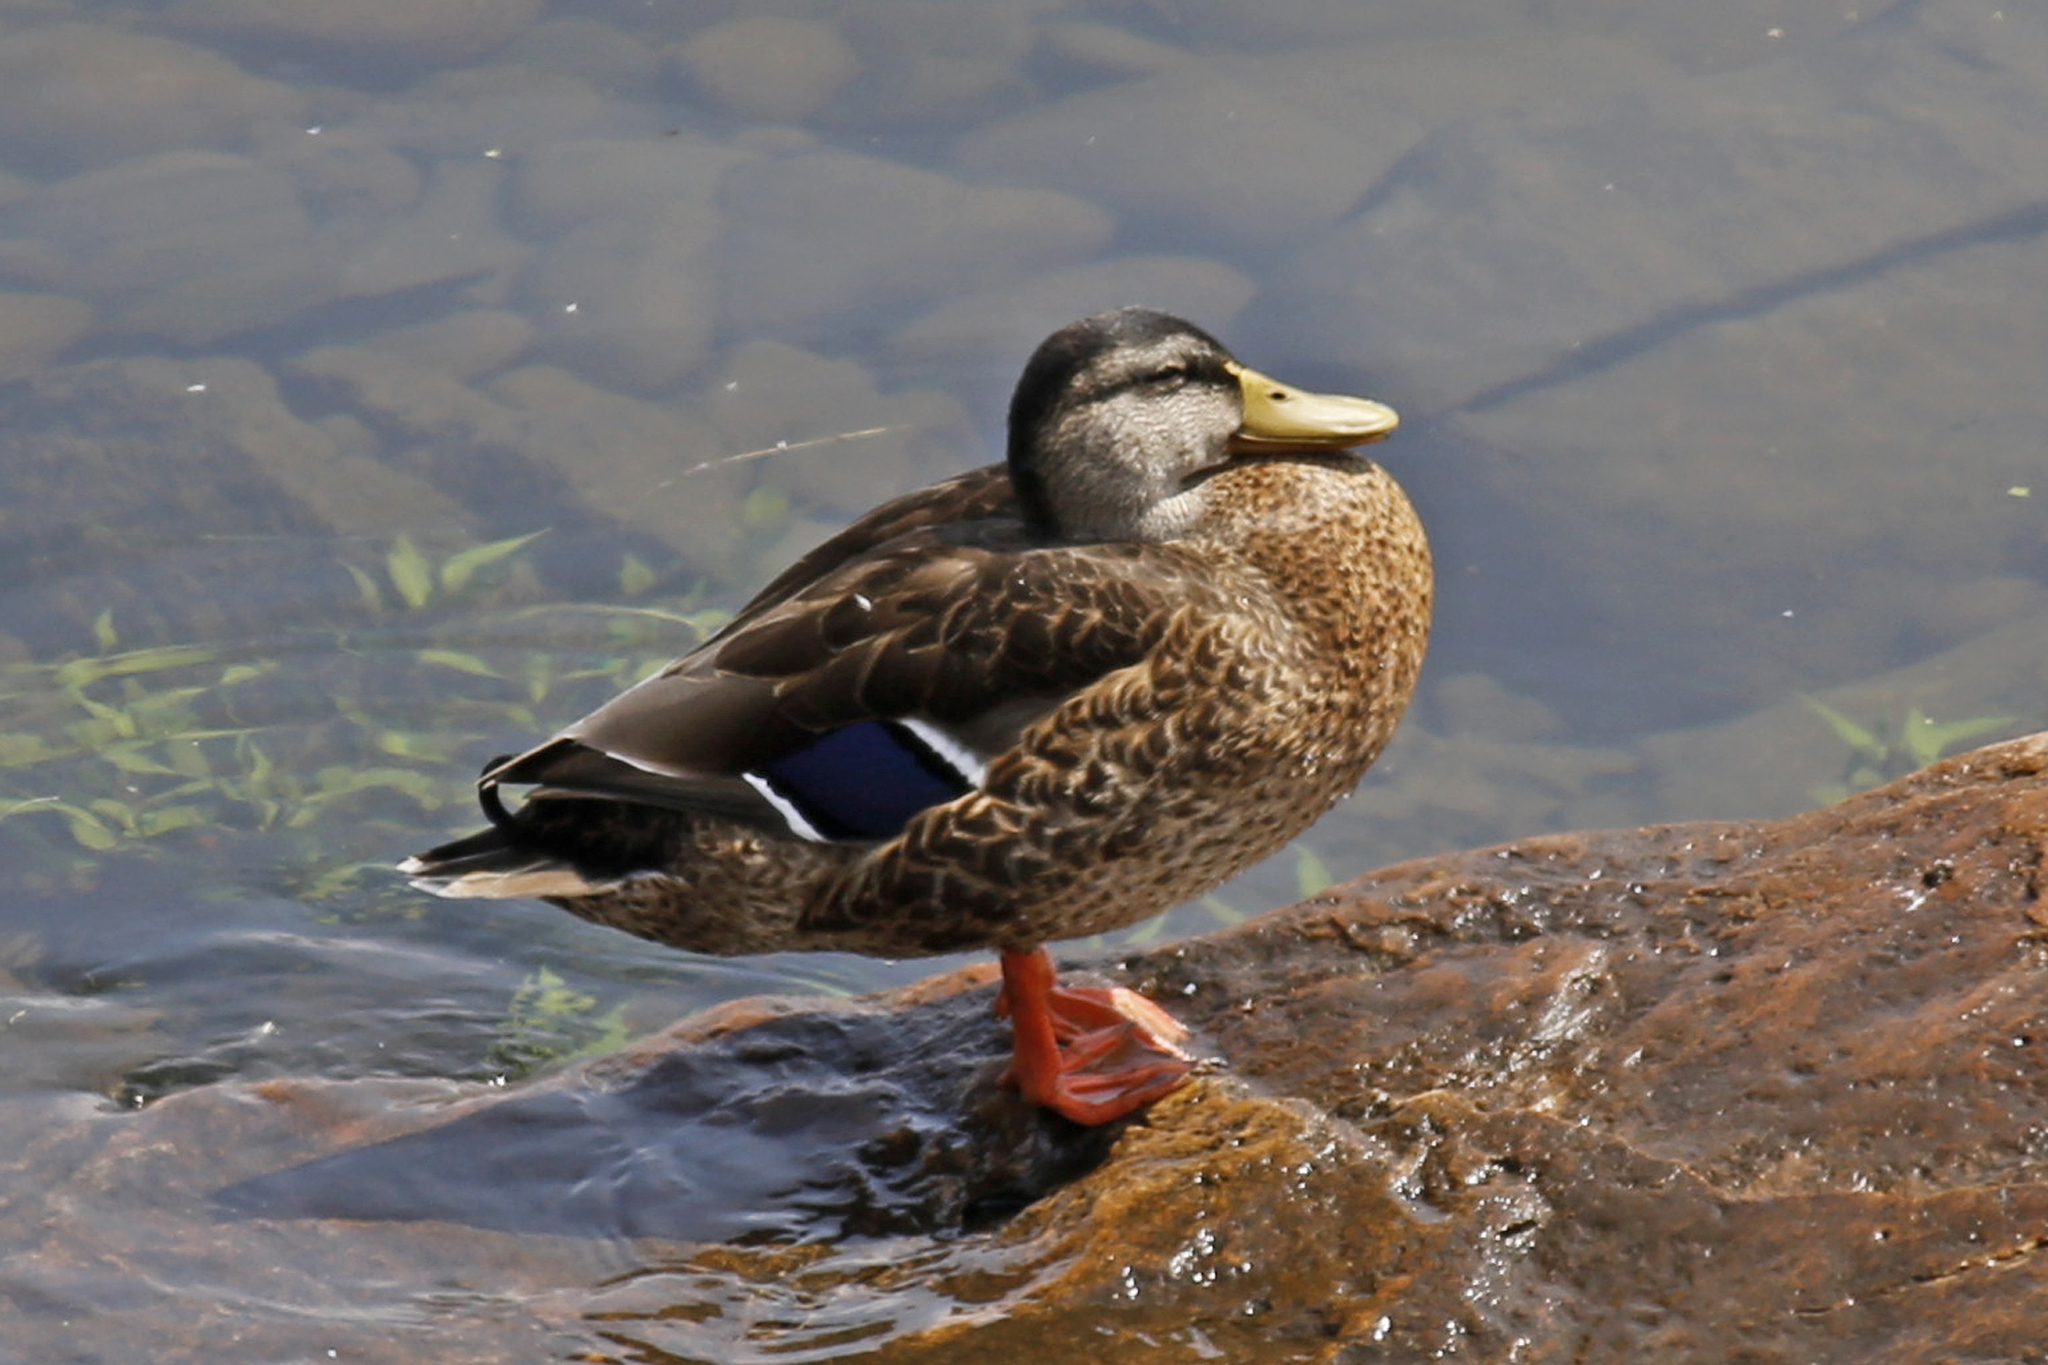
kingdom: Animalia
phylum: Chordata
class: Aves
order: Anseriformes
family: Anatidae
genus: Anas
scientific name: Anas platyrhynchos
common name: Mallard
